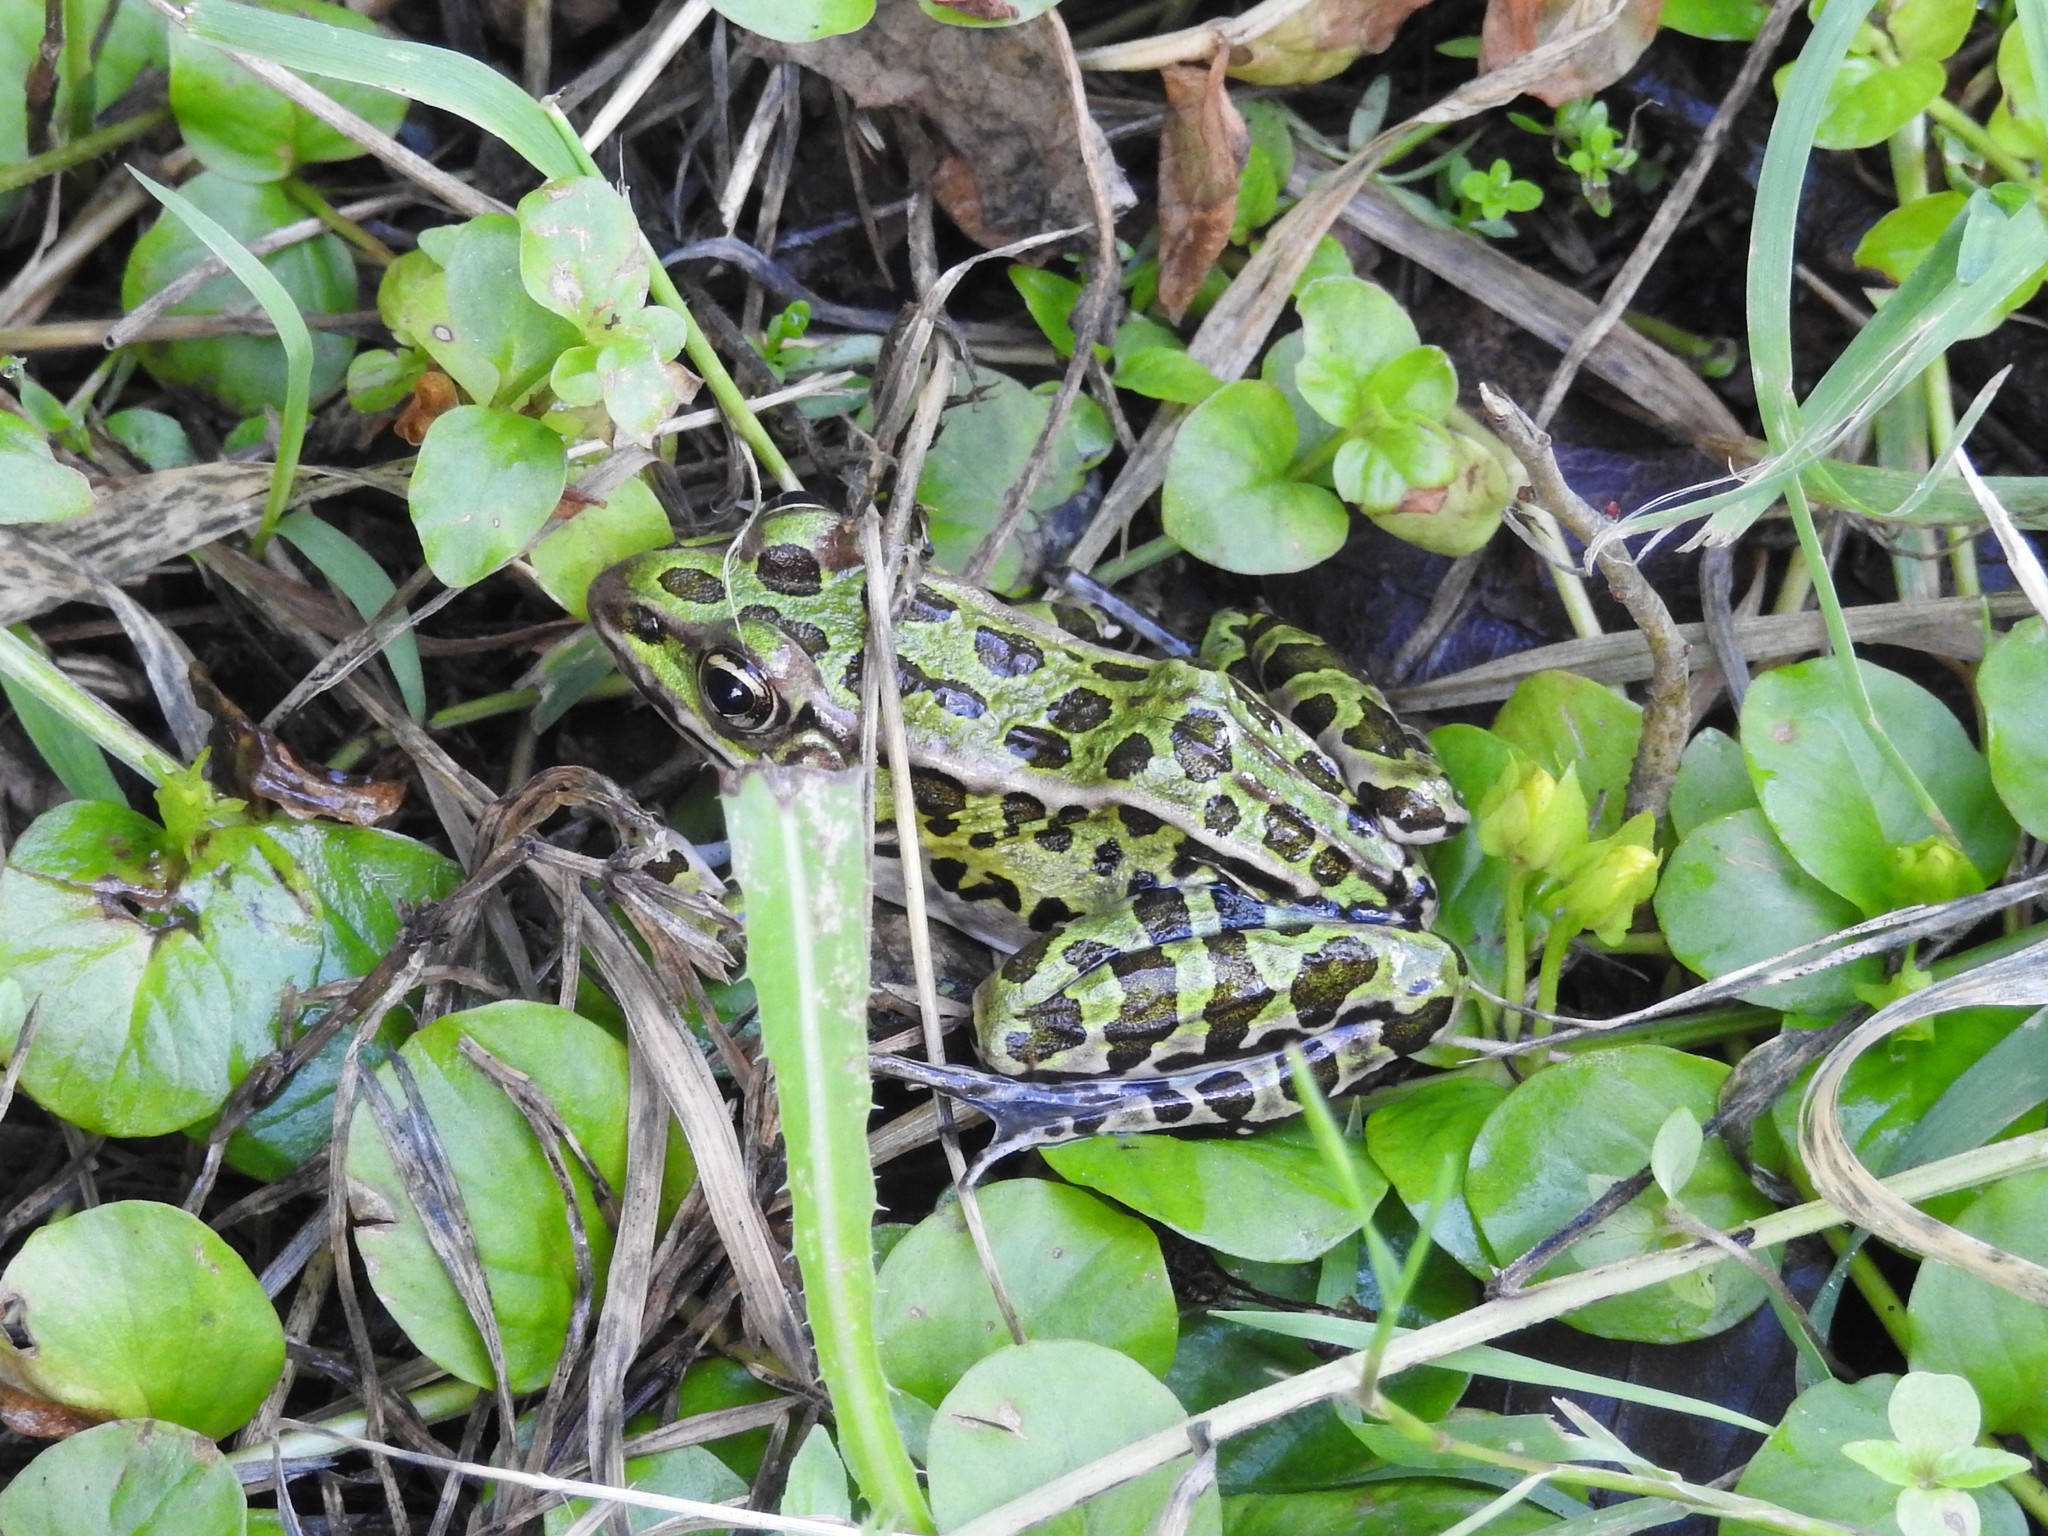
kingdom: Animalia
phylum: Chordata
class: Amphibia
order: Anura
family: Ranidae
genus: Lithobates
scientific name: Lithobates pipiens
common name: Northern leopard frog
